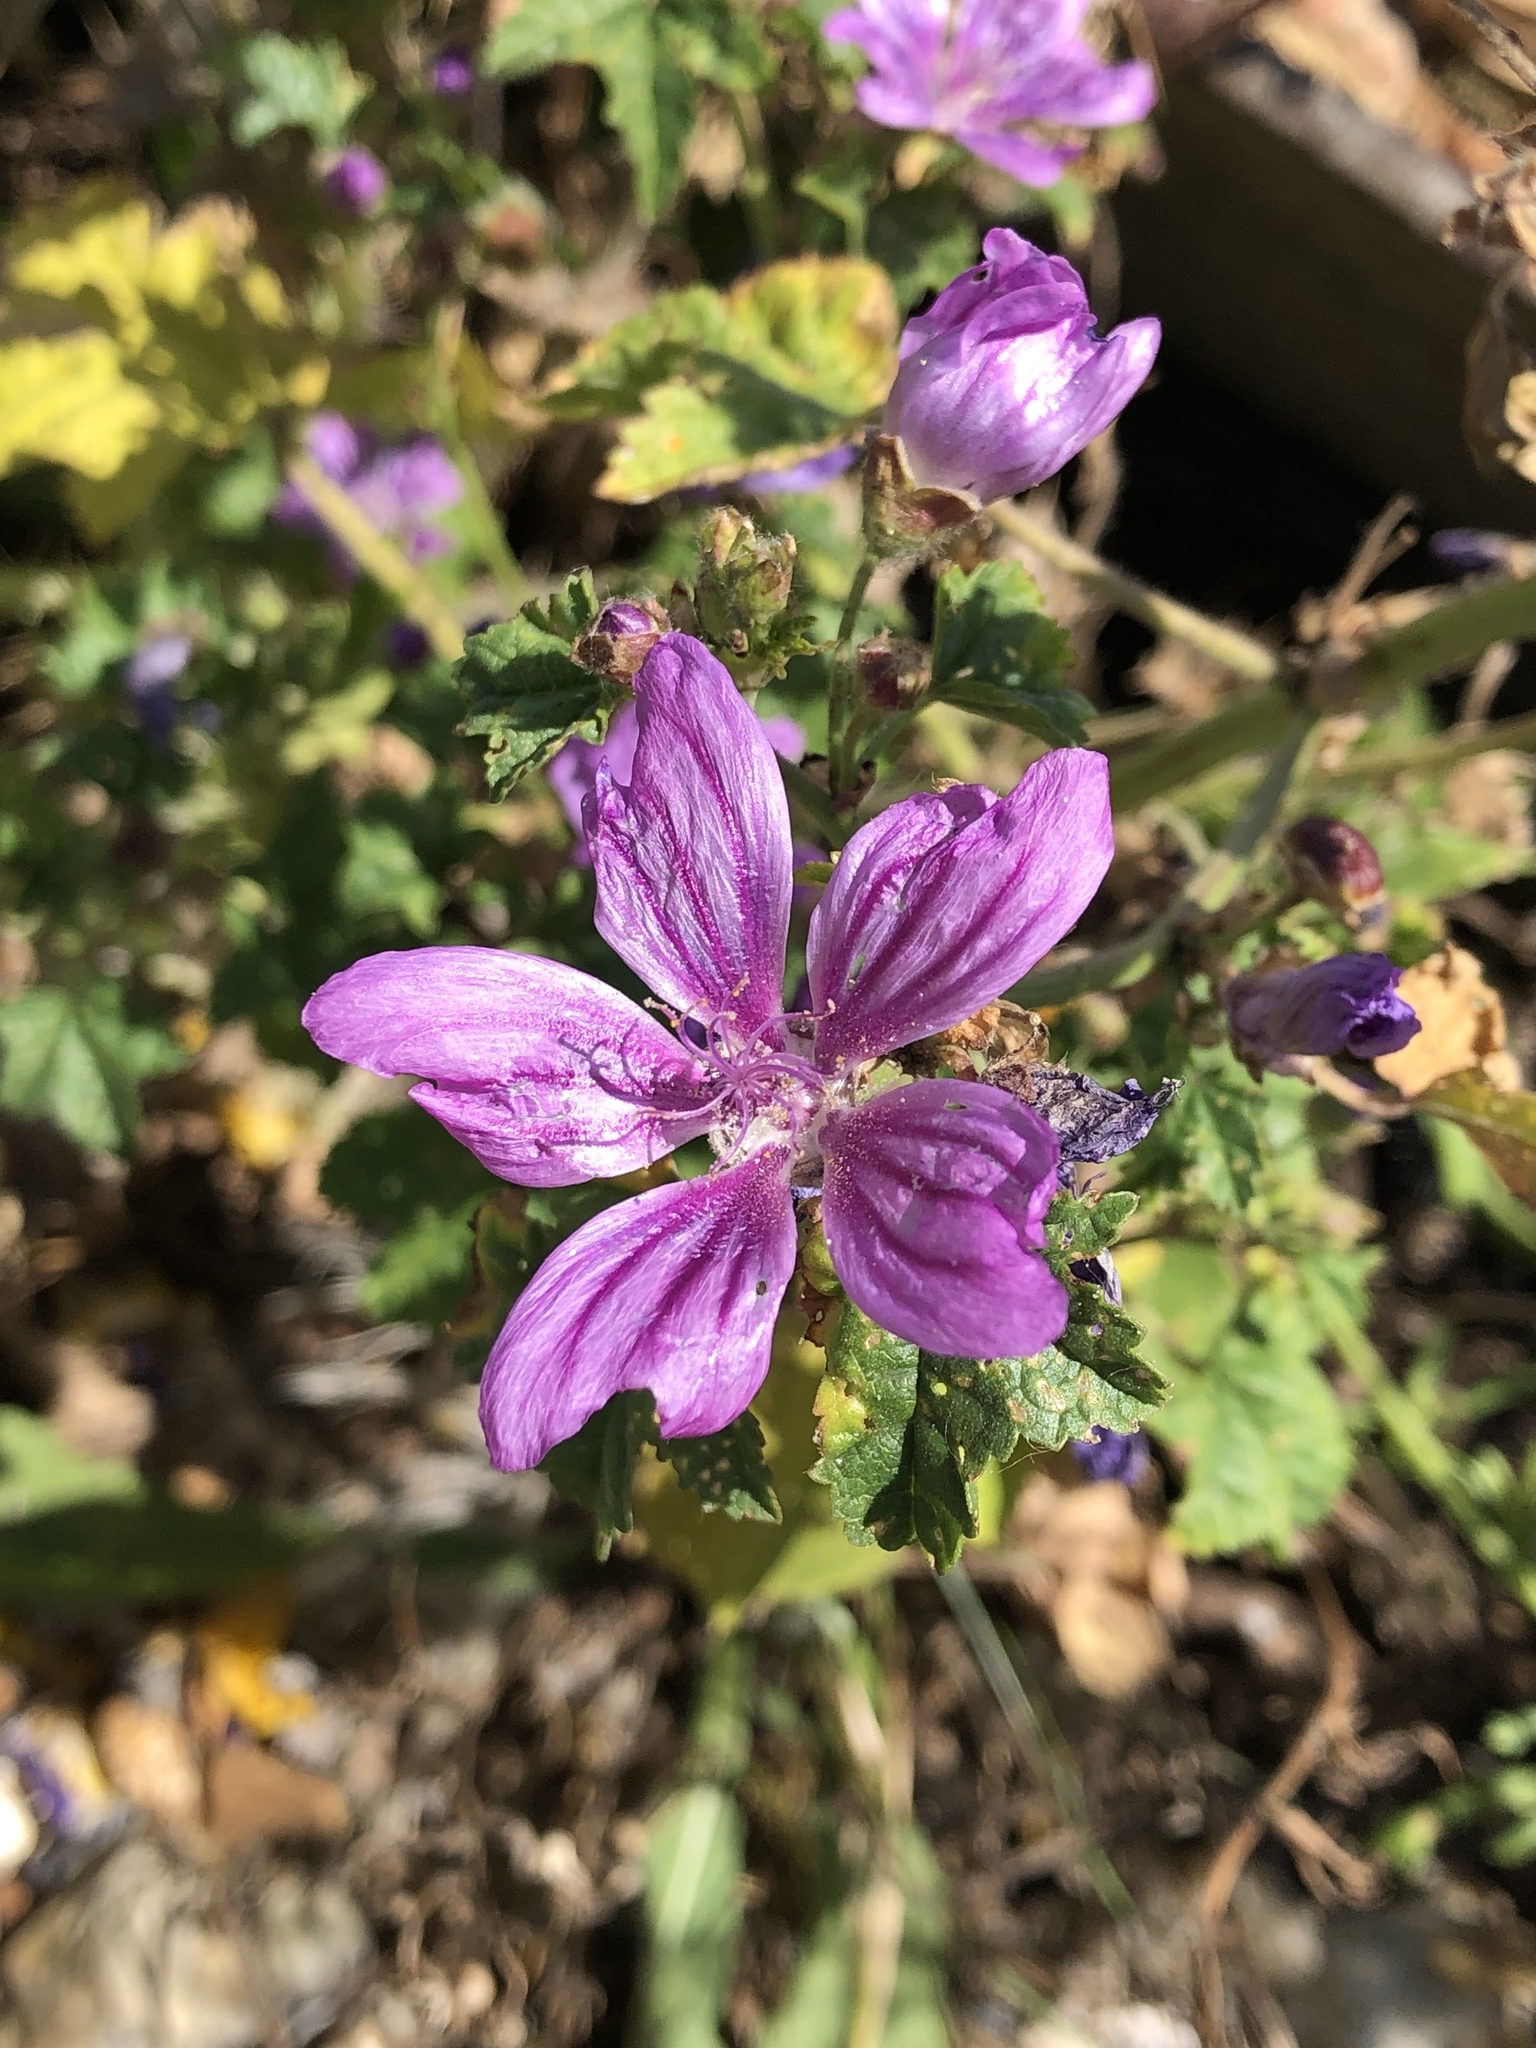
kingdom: Plantae
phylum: Tracheophyta
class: Magnoliopsida
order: Malvales
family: Malvaceae
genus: Malva
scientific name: Malva sylvestris
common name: Common mallow
